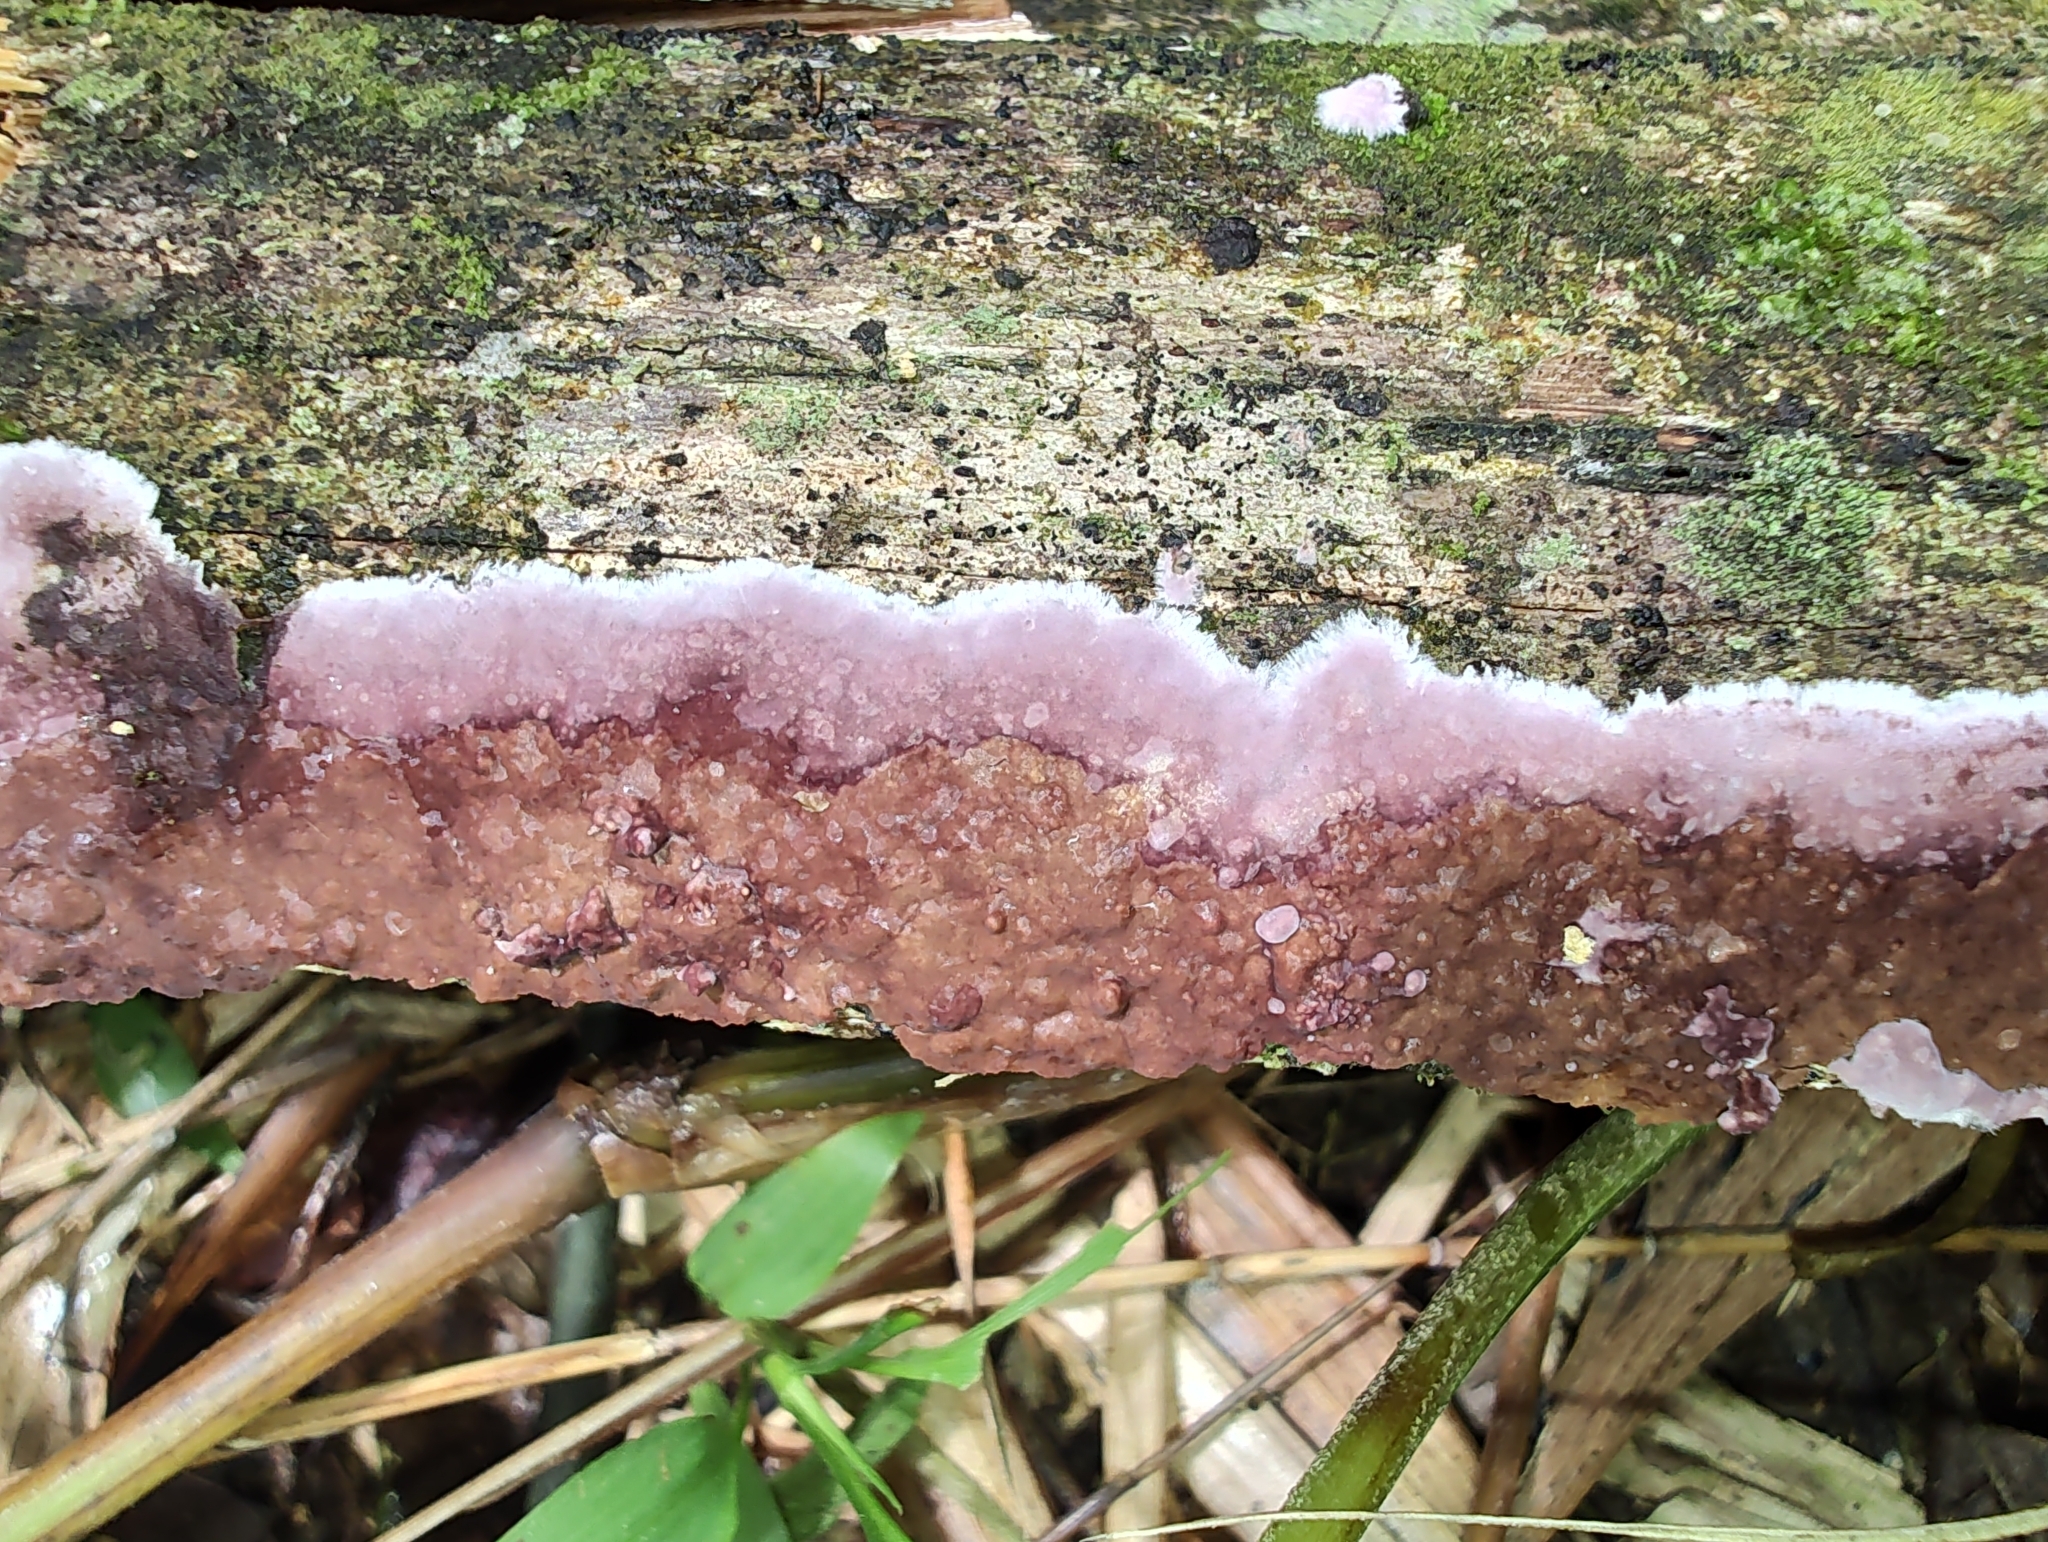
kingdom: Fungi
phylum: Basidiomycota
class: Agaricomycetes
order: Agaricales
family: Cyphellaceae
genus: Chondrostereum
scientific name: Chondrostereum purpureum
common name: Silver leaf disease
